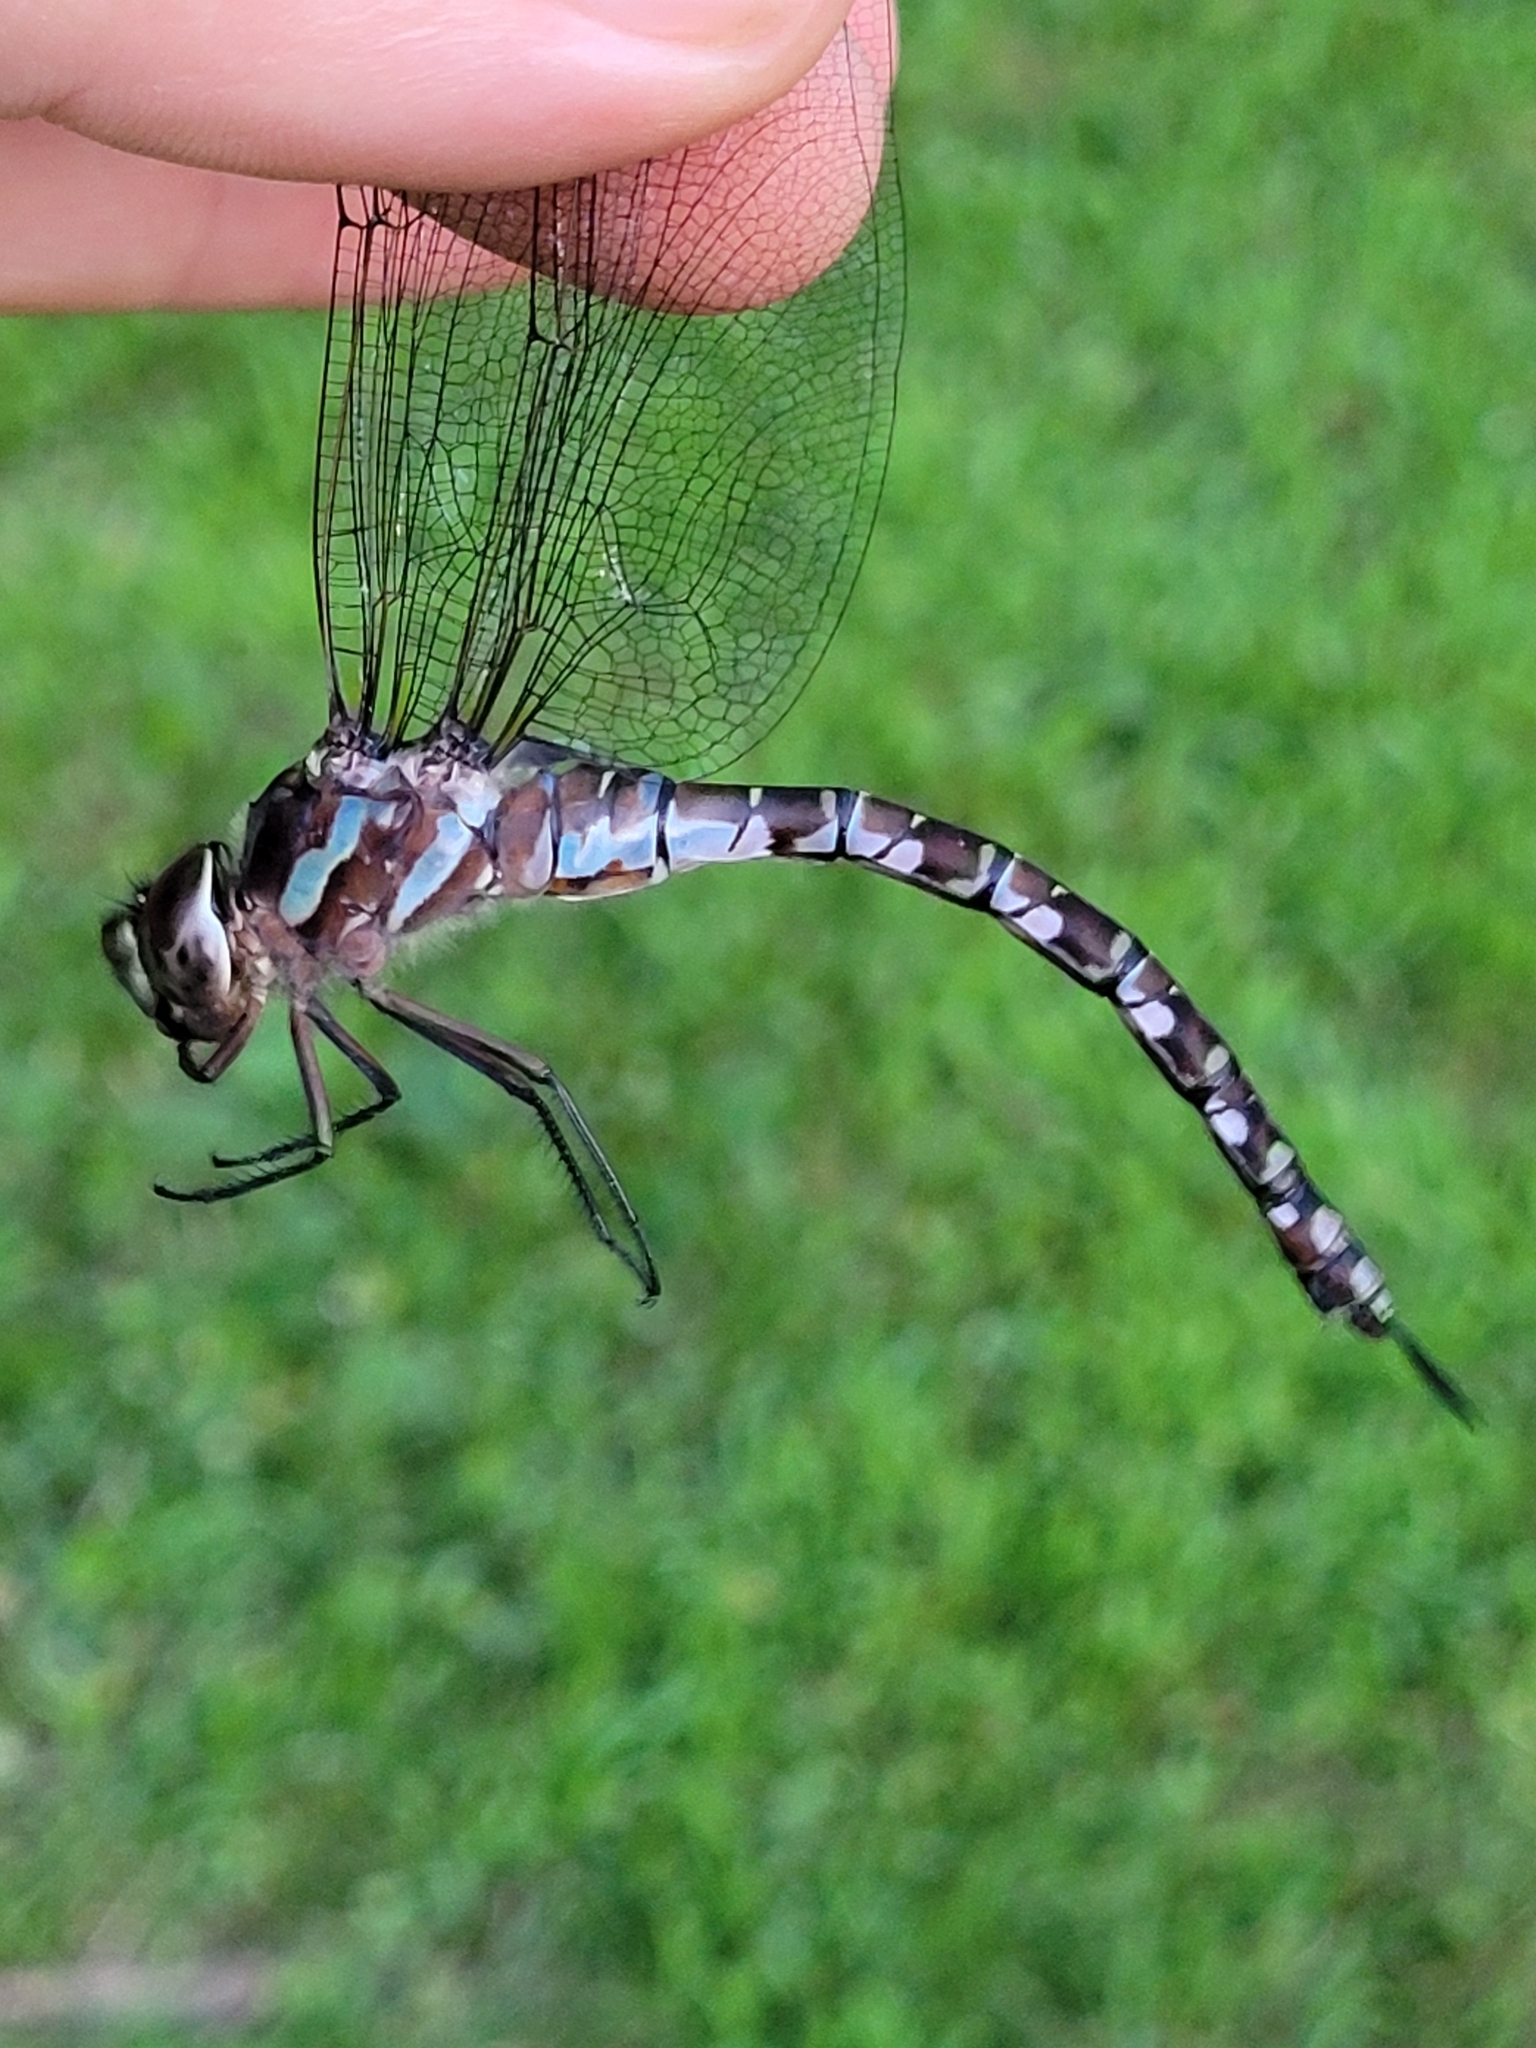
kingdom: Animalia
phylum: Arthropoda
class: Insecta
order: Odonata
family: Aeshnidae
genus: Aeshna
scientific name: Aeshna verticalis
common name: Green-striped darner
